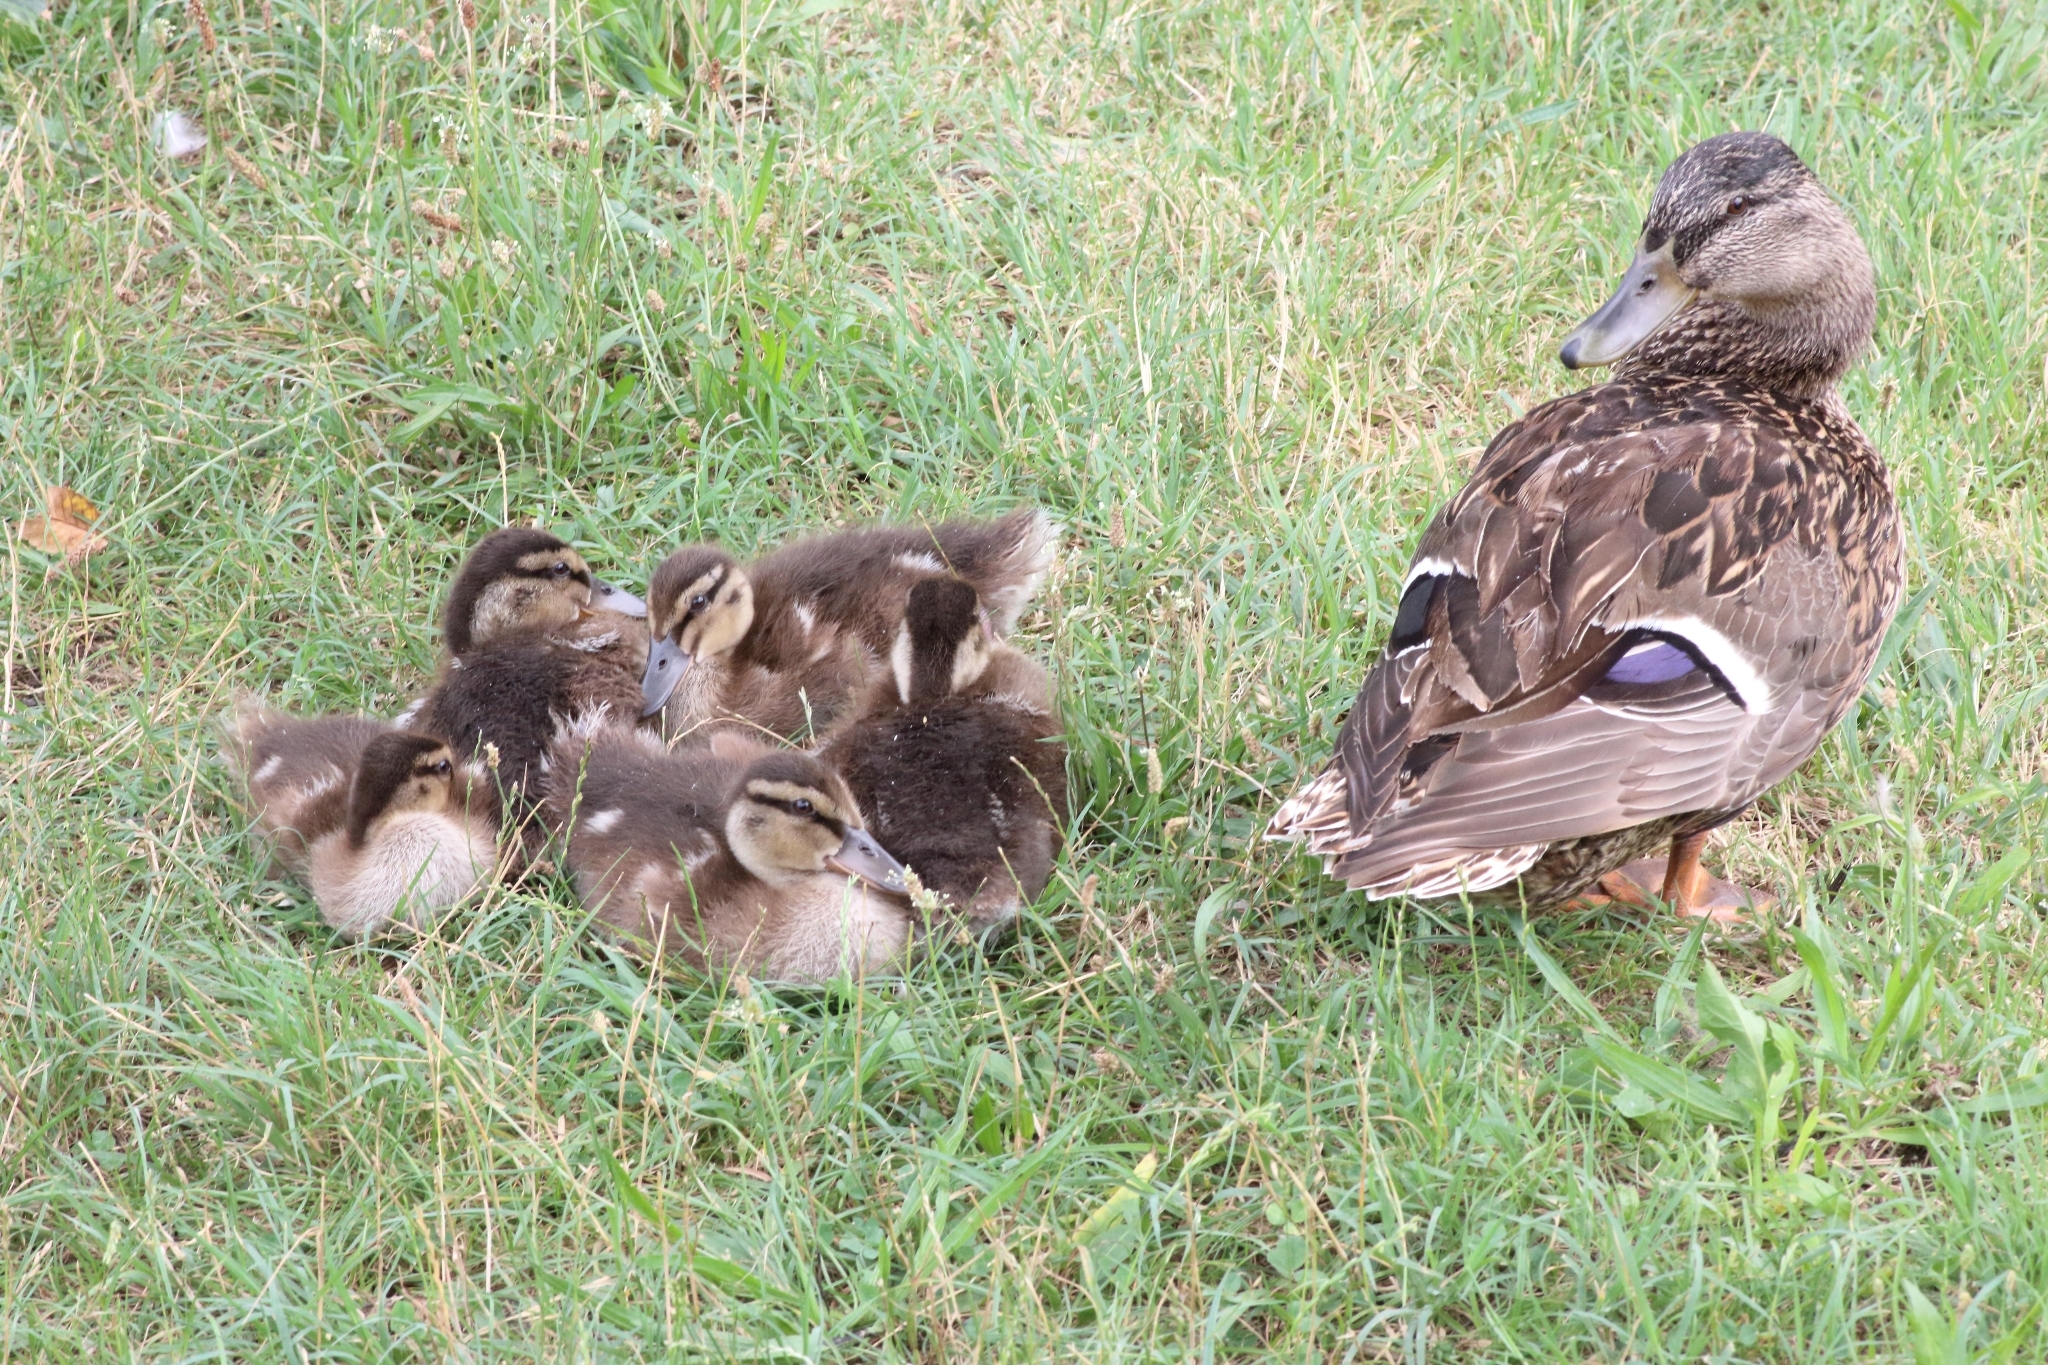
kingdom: Animalia
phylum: Chordata
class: Aves
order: Anseriformes
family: Anatidae
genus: Anas
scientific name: Anas platyrhynchos
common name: Mallard
